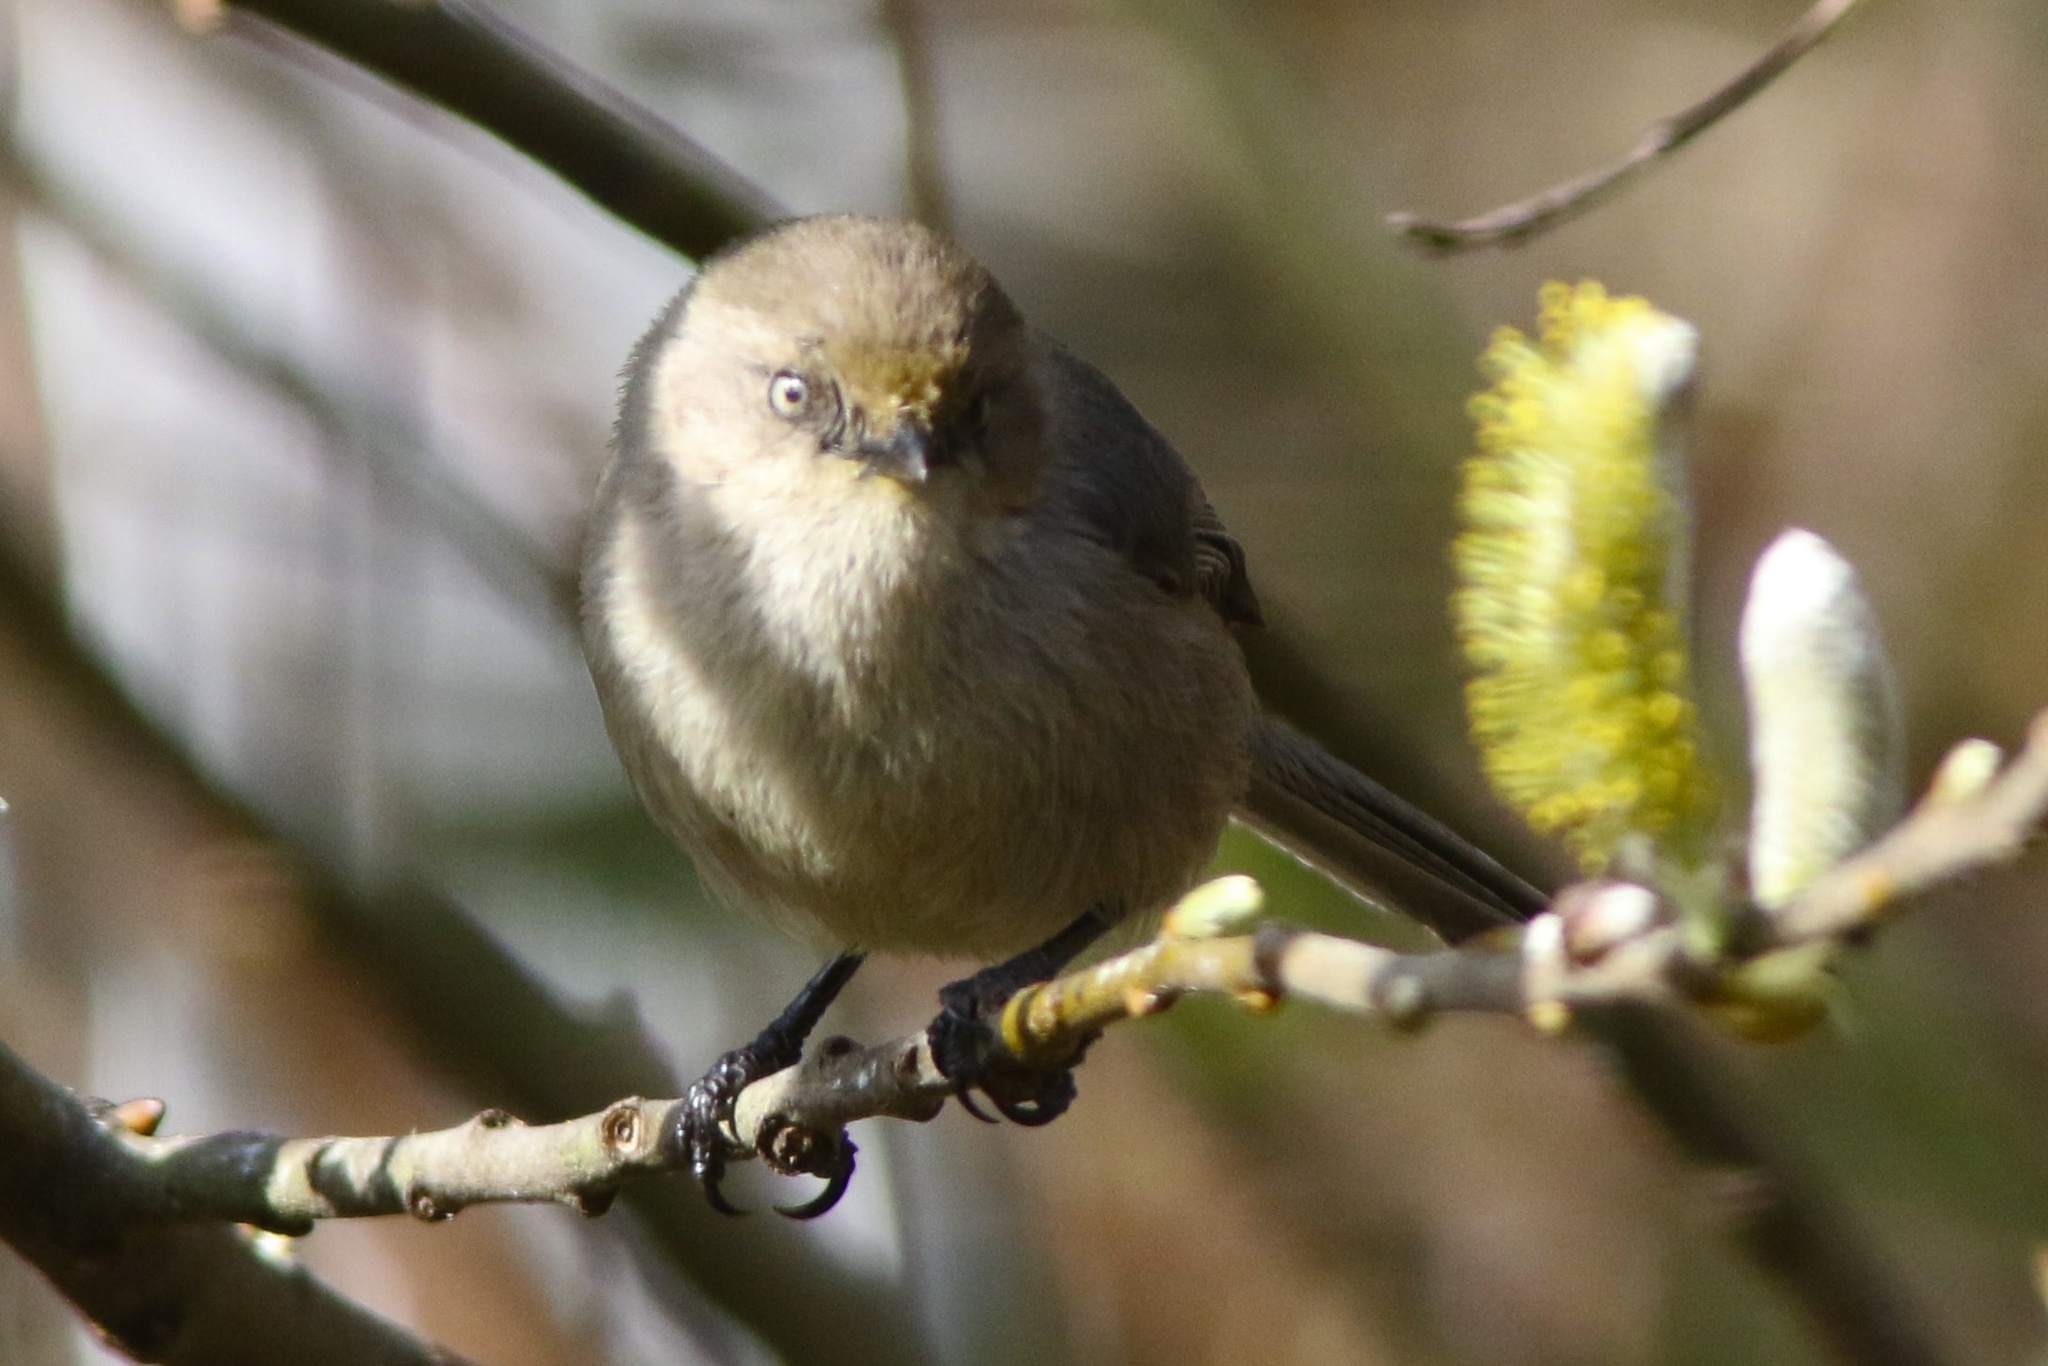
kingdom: Animalia
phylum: Chordata
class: Aves
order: Passeriformes
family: Aegithalidae
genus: Psaltriparus
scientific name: Psaltriparus minimus
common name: American bushtit
